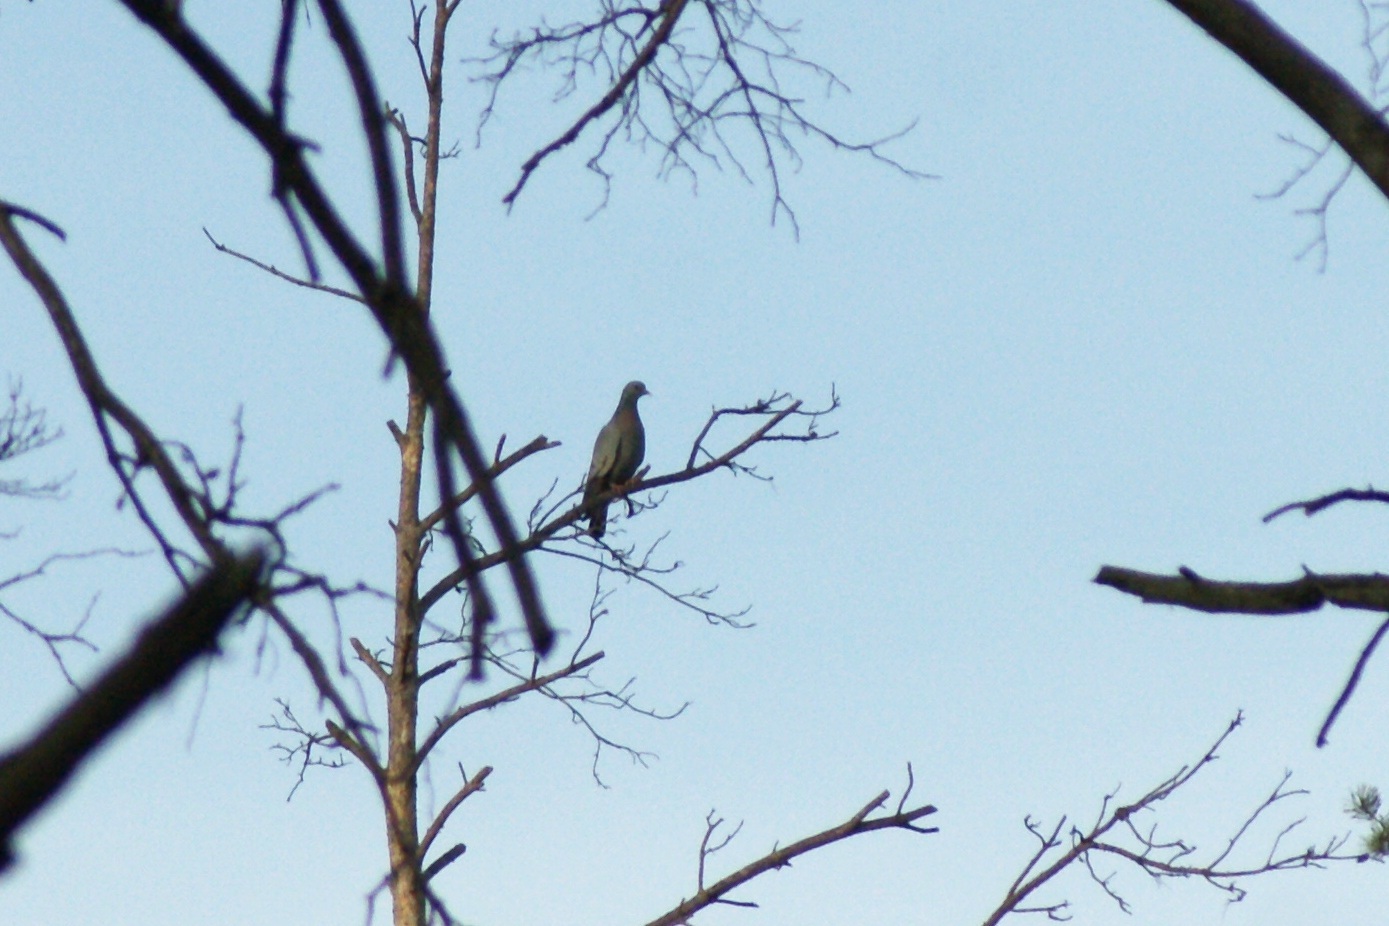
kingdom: Animalia
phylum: Chordata
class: Aves
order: Columbiformes
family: Columbidae
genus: Columba
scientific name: Columba oenas
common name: Stock dove
